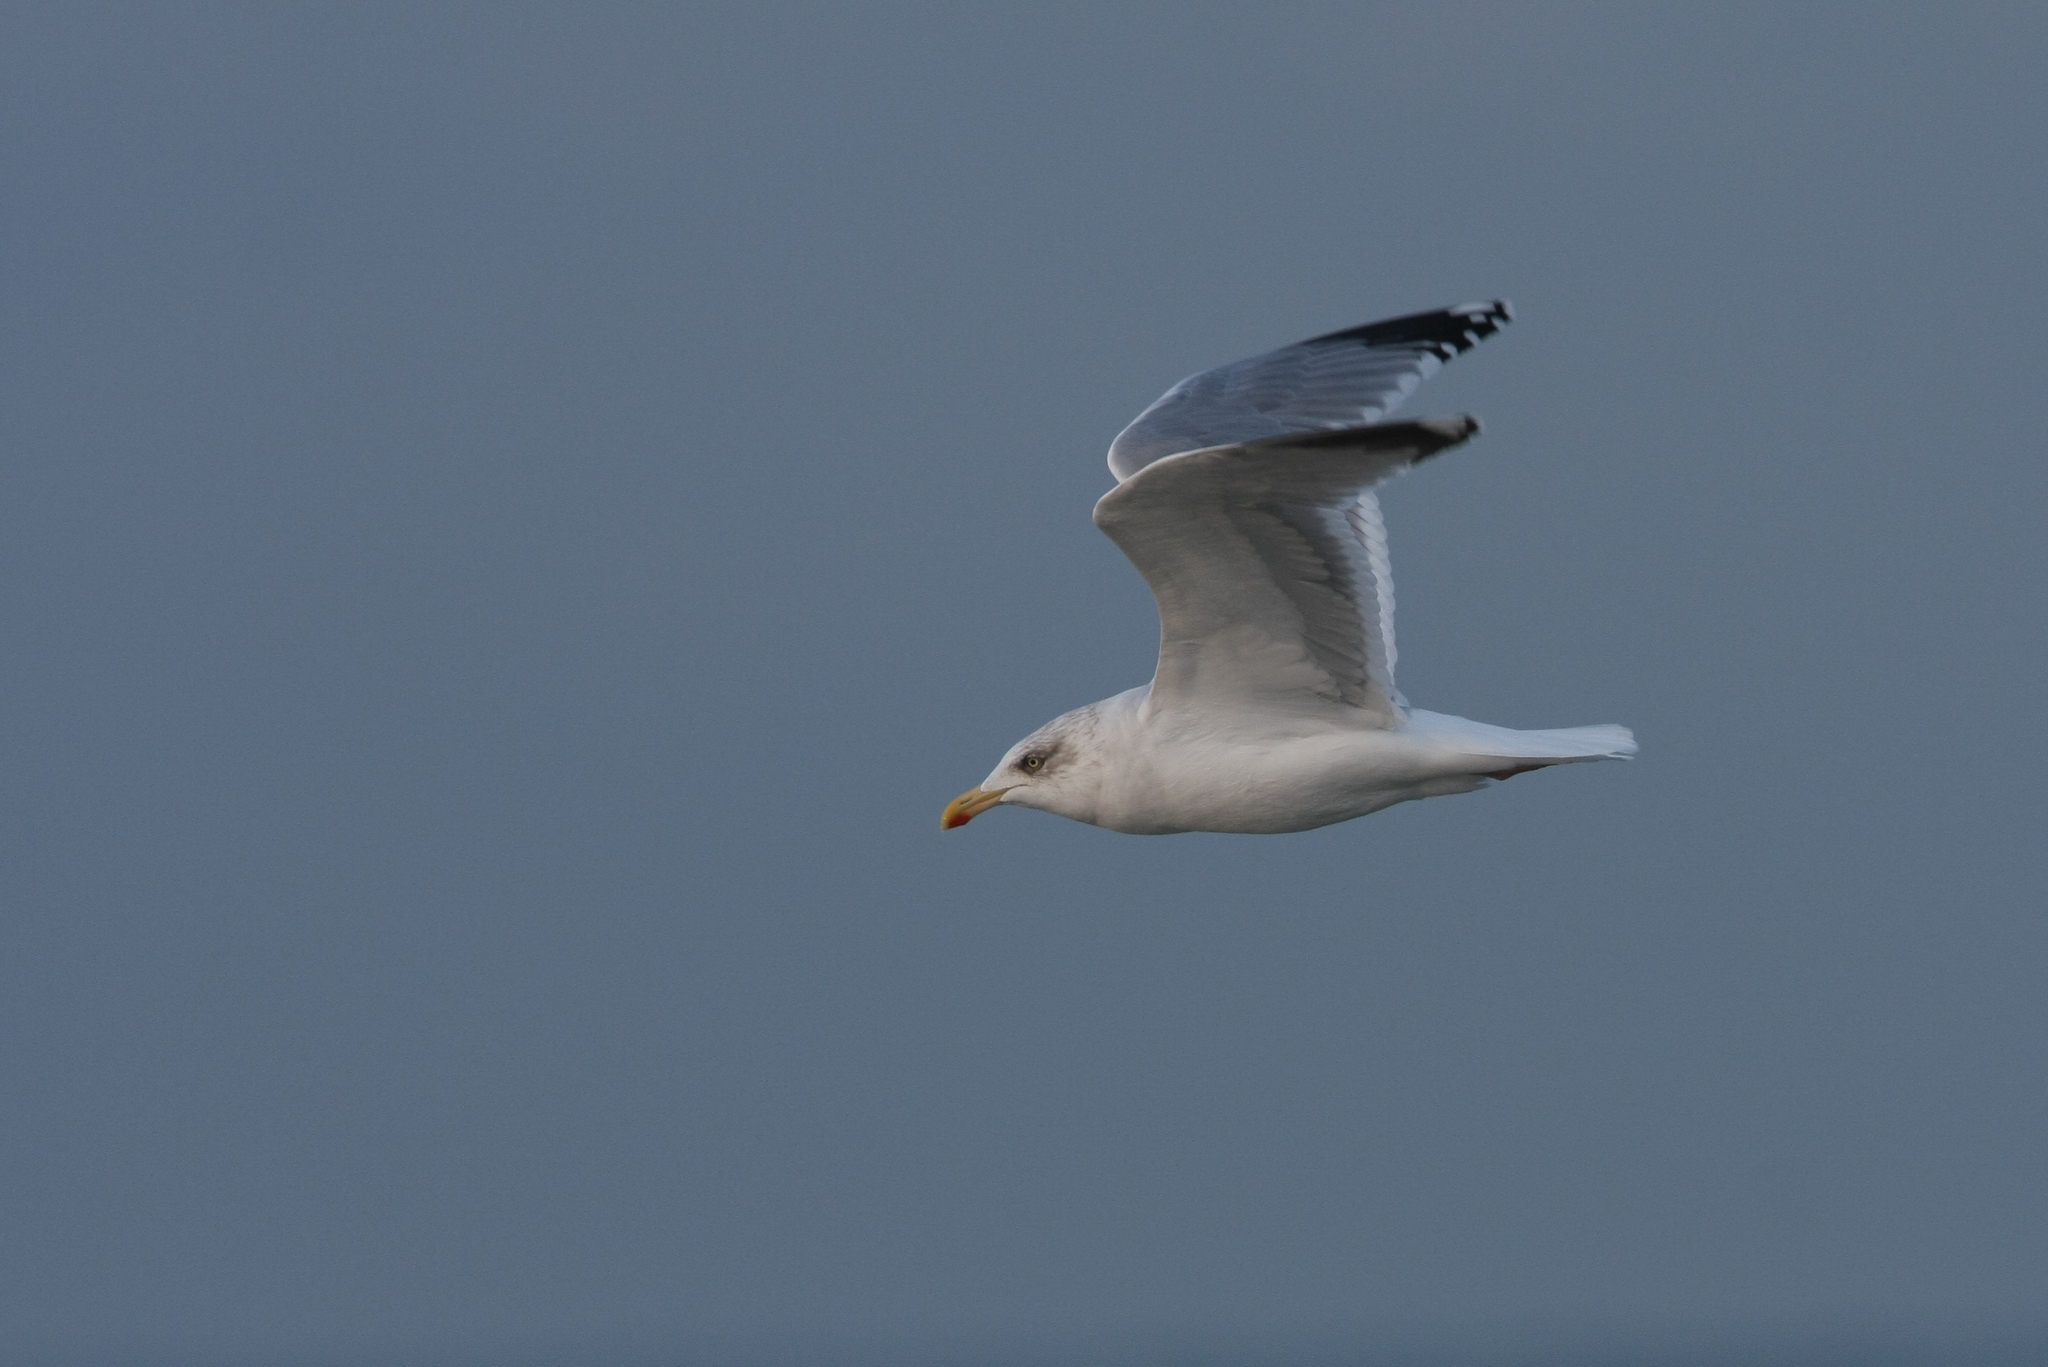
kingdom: Animalia
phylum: Chordata
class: Aves
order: Charadriiformes
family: Laridae
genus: Larus
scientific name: Larus argentatus
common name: Herring gull
